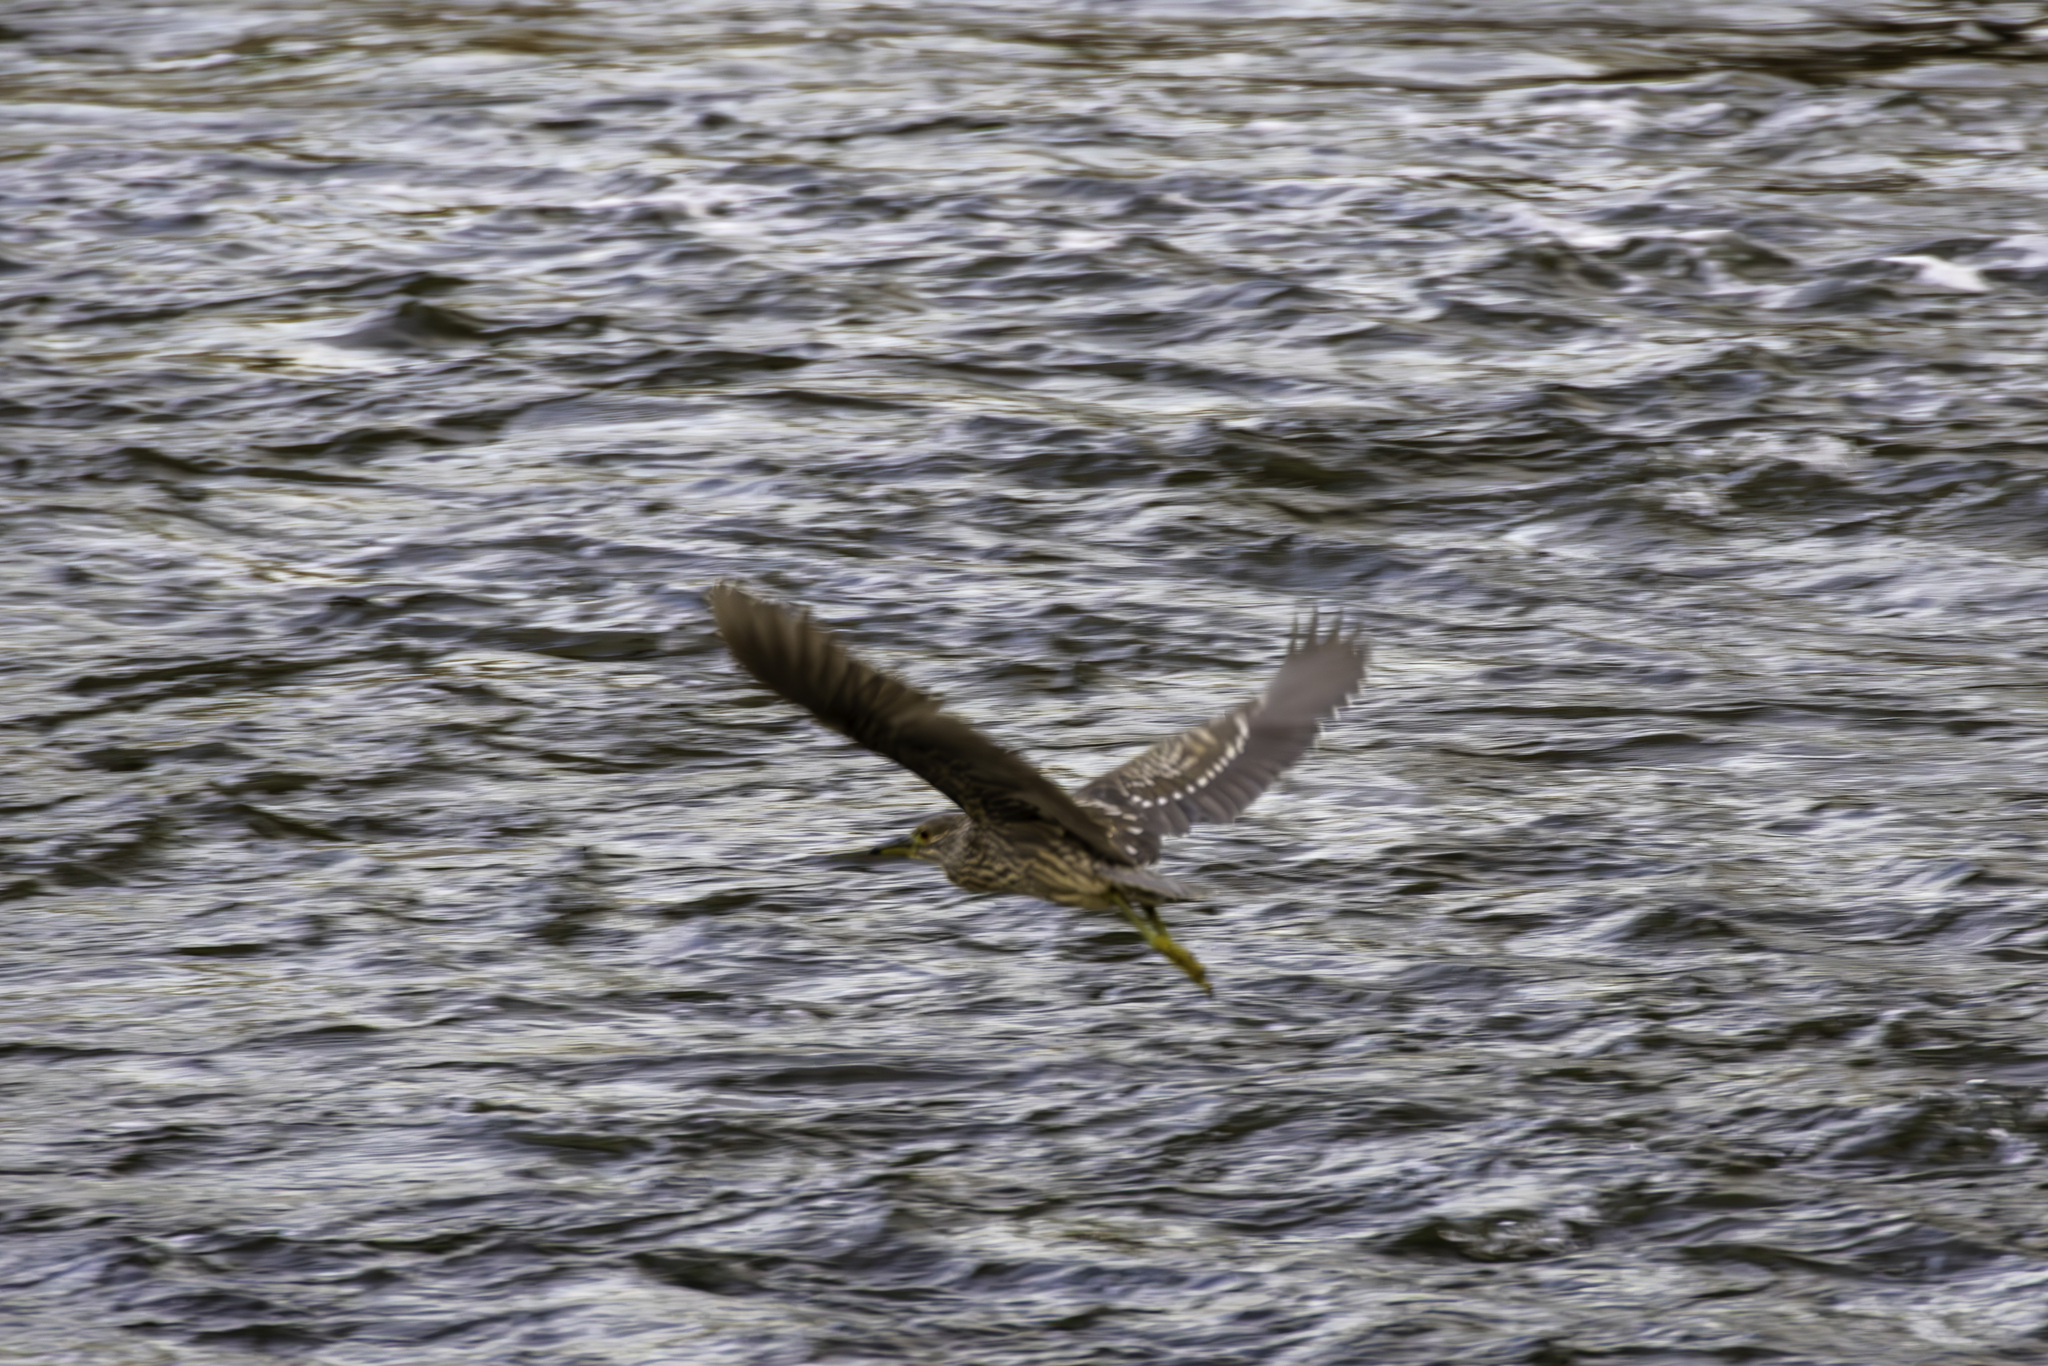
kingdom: Animalia
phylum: Chordata
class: Aves
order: Pelecaniformes
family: Ardeidae
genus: Nycticorax
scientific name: Nycticorax nycticorax
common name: Black-crowned night heron
